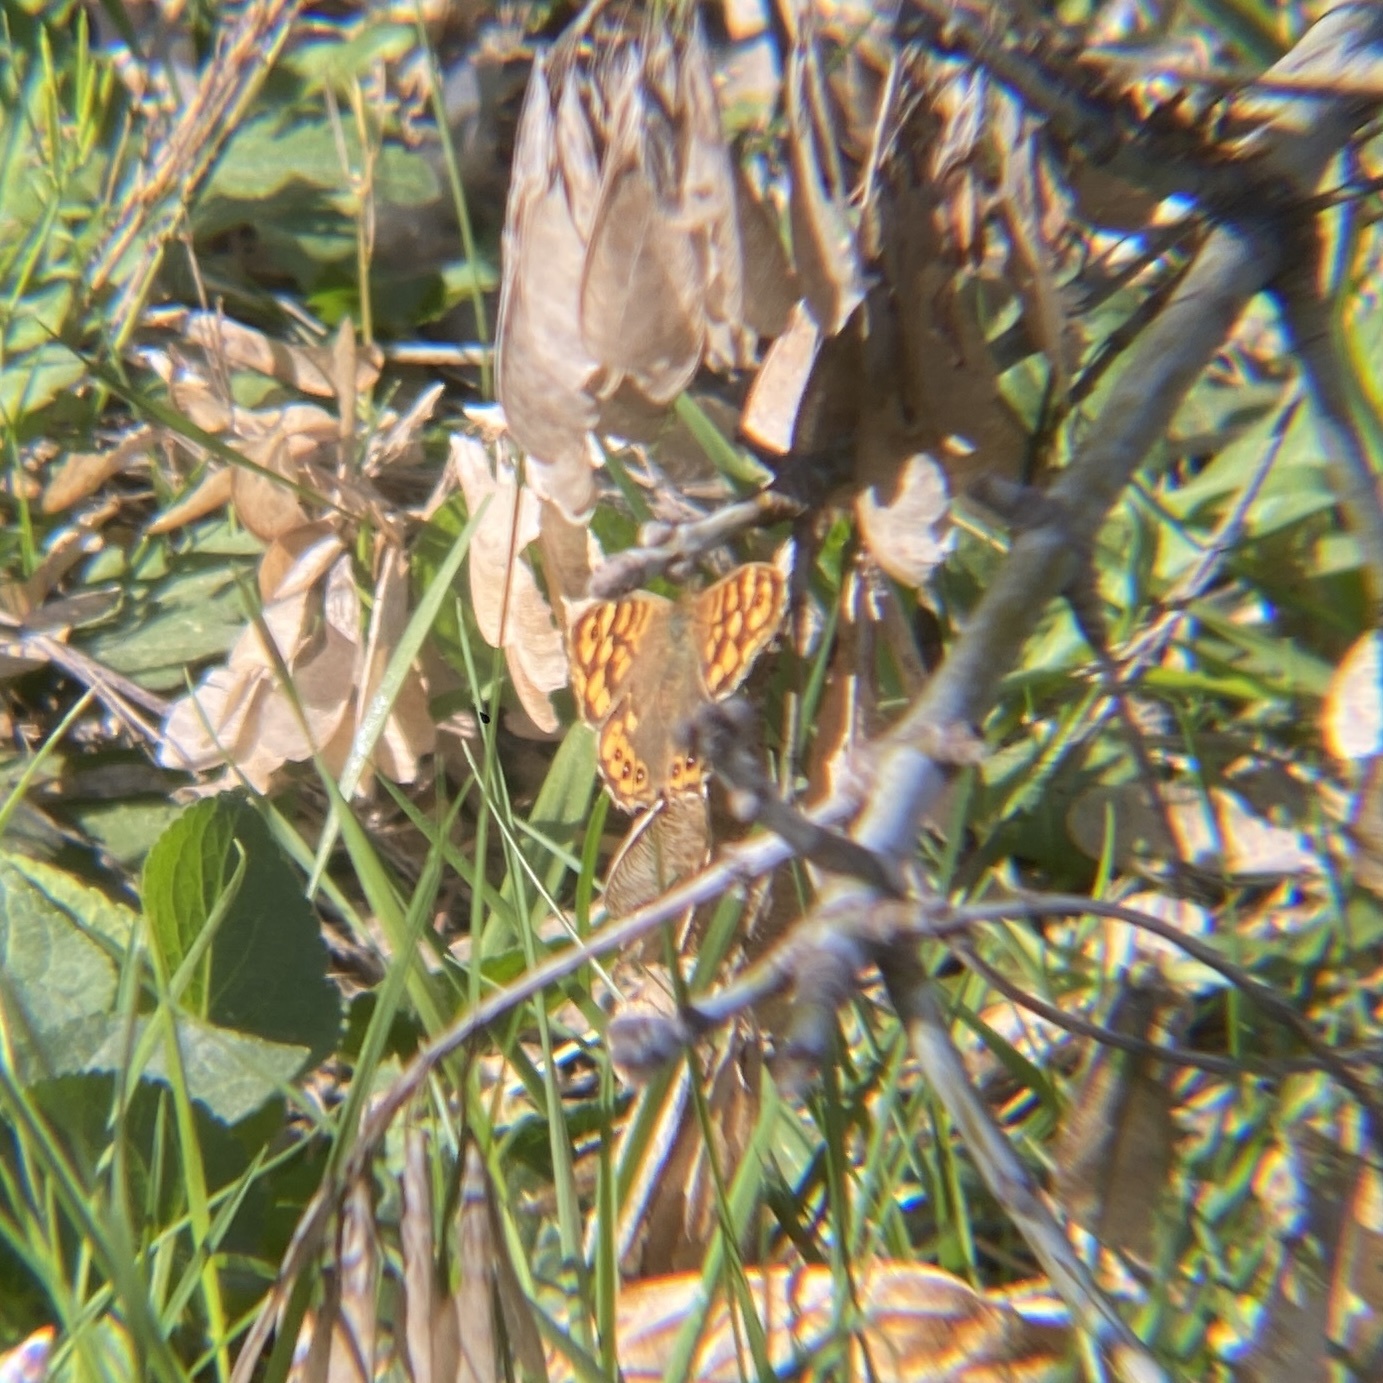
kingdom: Animalia
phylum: Arthropoda
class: Insecta
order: Lepidoptera
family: Nymphalidae
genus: Pararge
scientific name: Pararge aegeria
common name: Speckled wood
